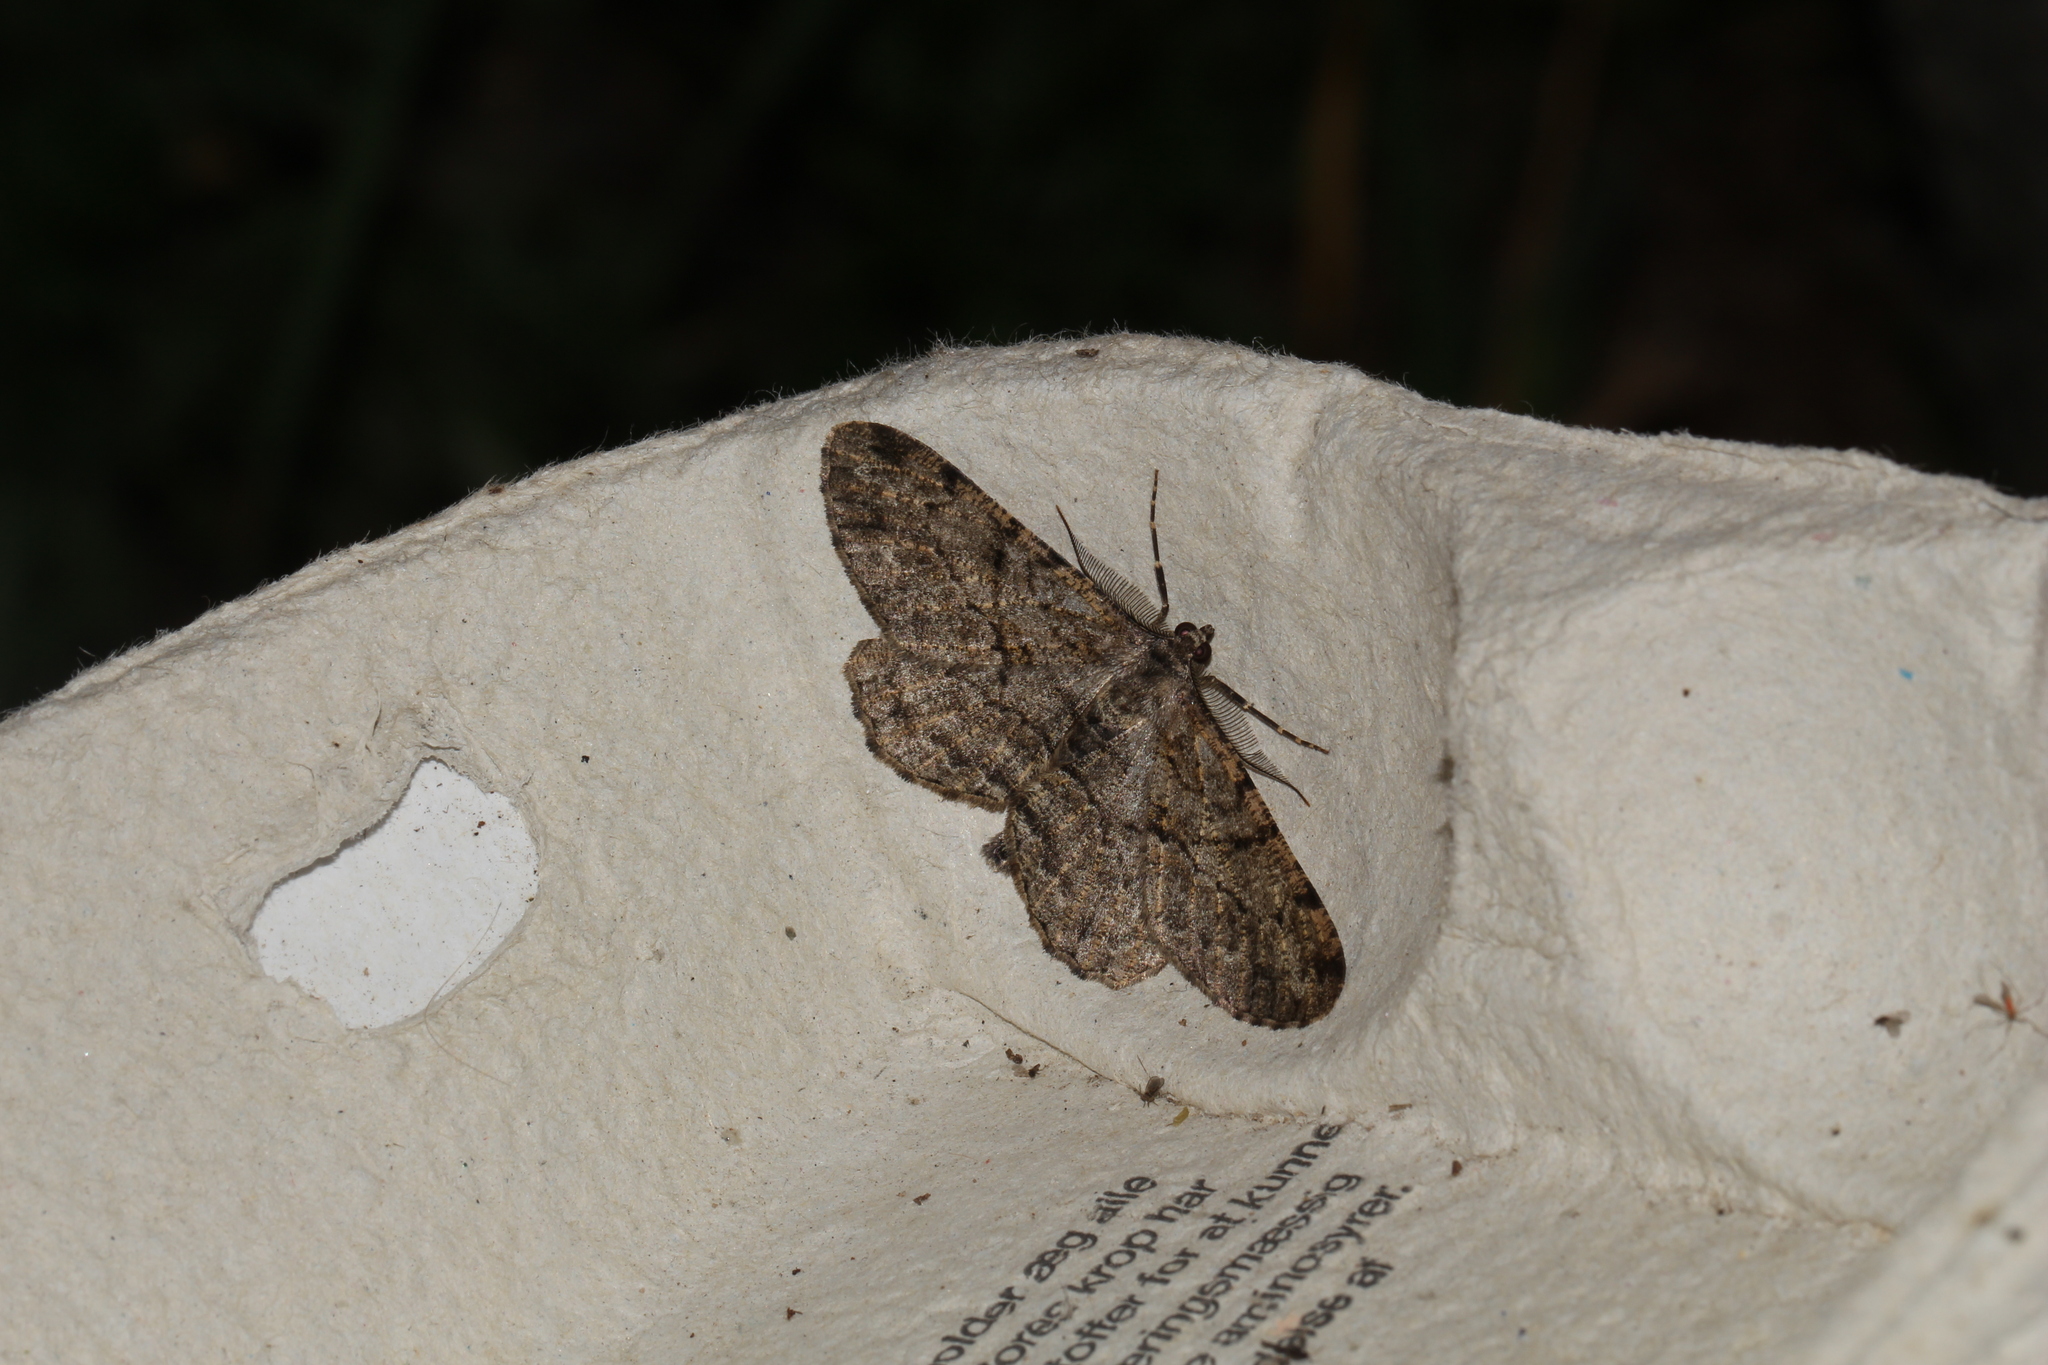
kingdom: Animalia
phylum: Arthropoda
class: Insecta
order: Lepidoptera
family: Geometridae
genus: Peribatodes
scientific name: Peribatodes rhomboidaria
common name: Willow beauty
